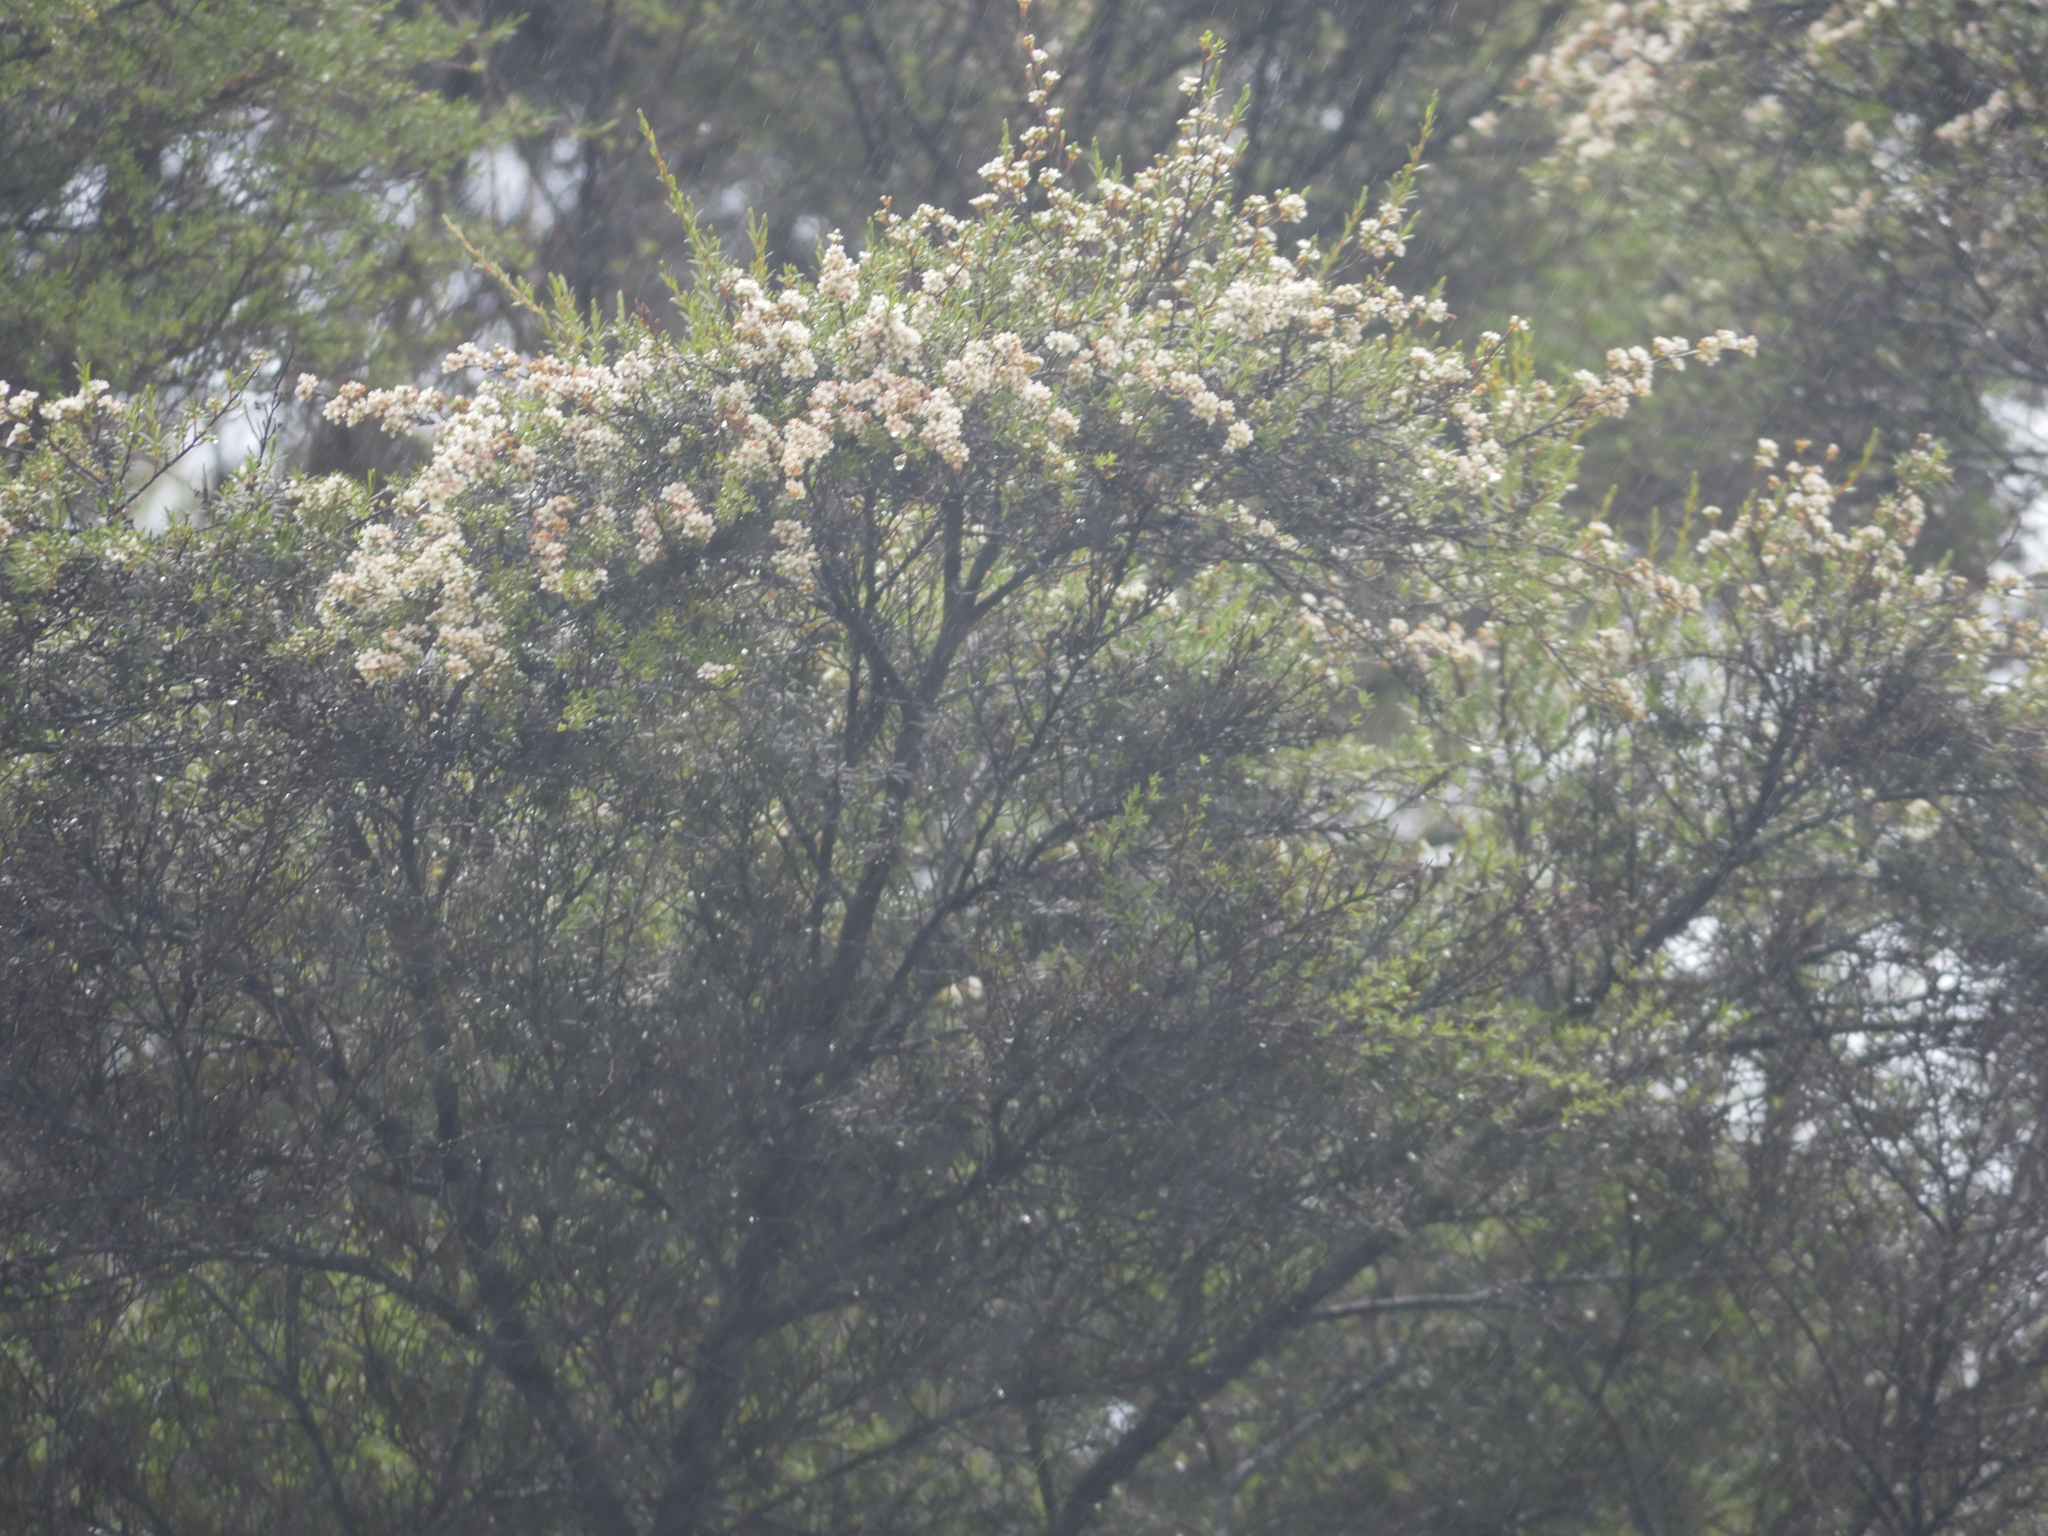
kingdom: Plantae
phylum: Tracheophyta
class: Magnoliopsida
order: Myrtales
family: Myrtaceae
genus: Kunzea
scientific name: Kunzea robusta
